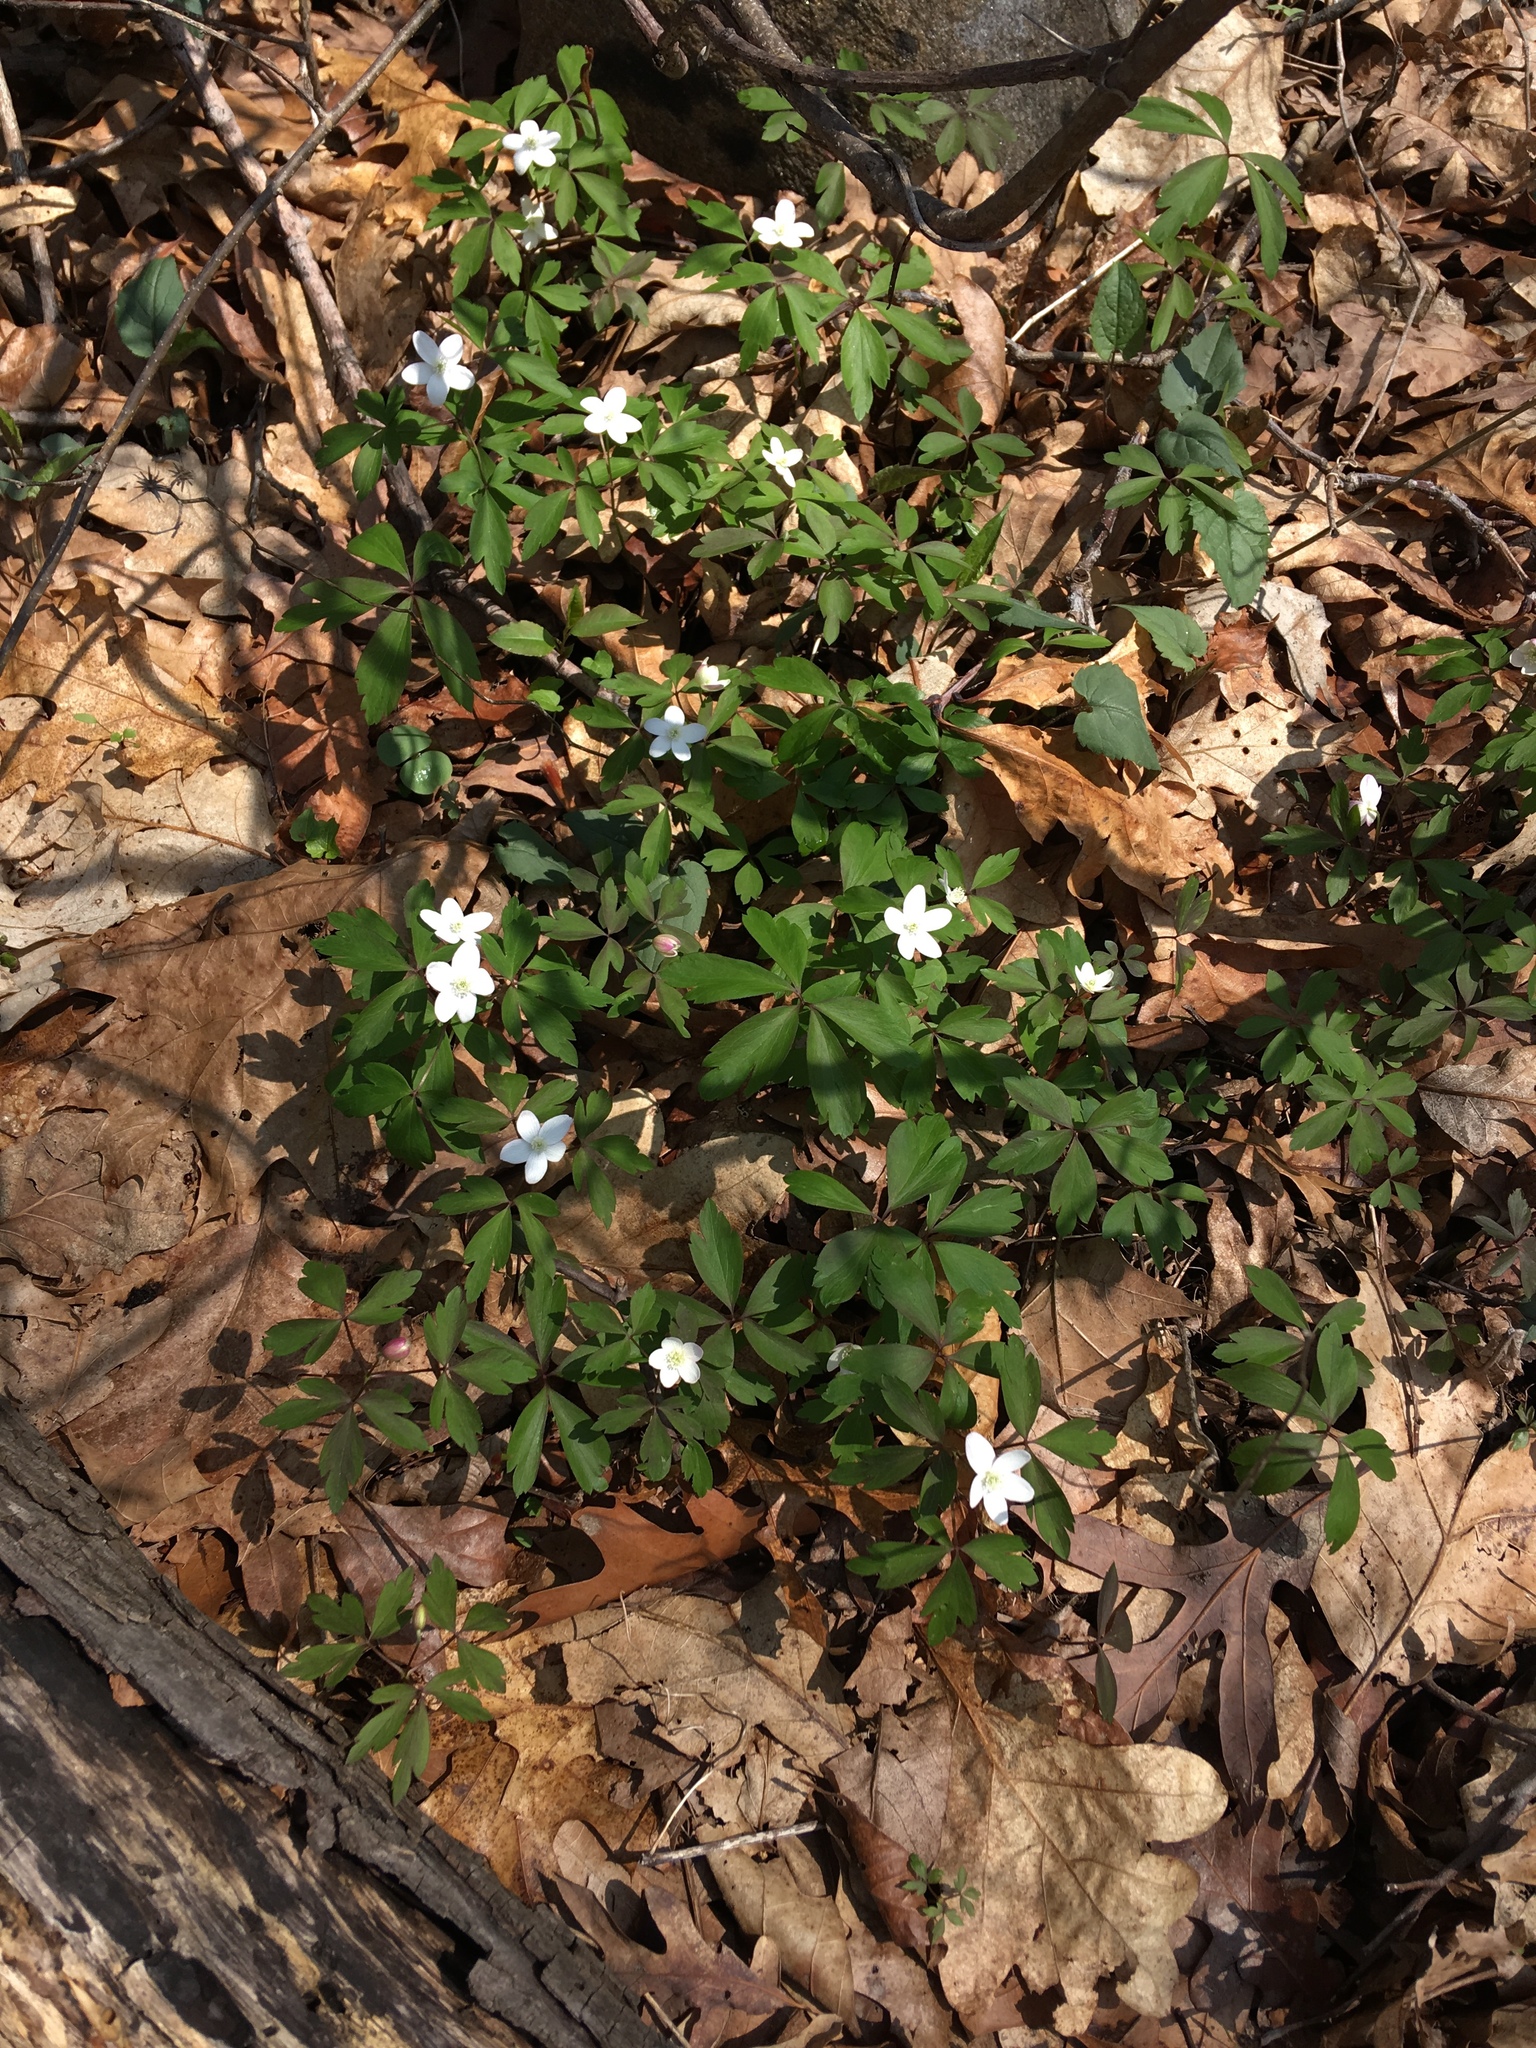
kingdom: Plantae
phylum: Tracheophyta
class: Magnoliopsida
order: Ranunculales
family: Ranunculaceae
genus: Anemone
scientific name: Anemone quinquefolia
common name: Wood anemone
